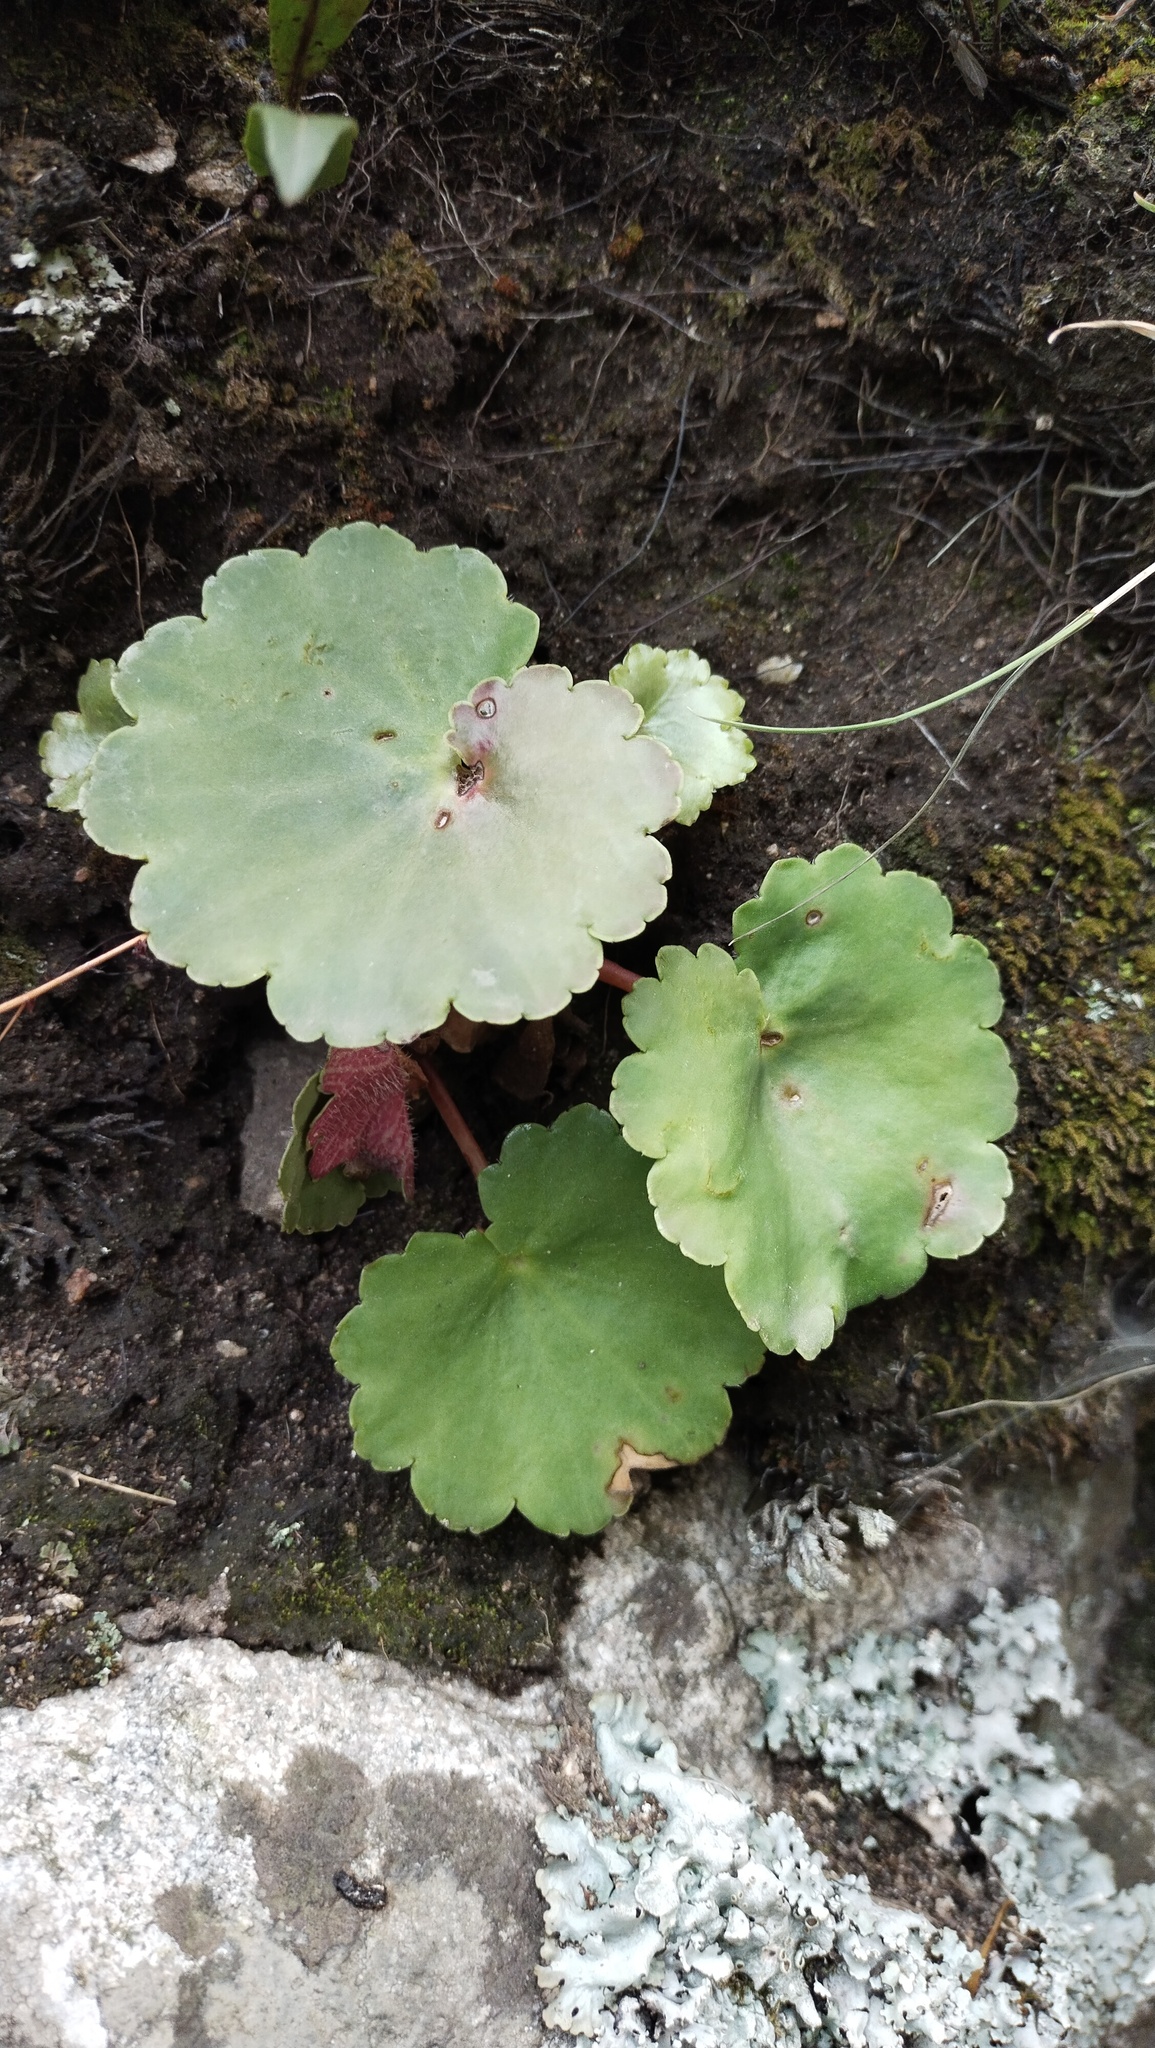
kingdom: Plantae
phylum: Tracheophyta
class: Magnoliopsida
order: Saxifragales
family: Saxifragaceae
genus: Saxifraga
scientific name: Saxifraga serotina
